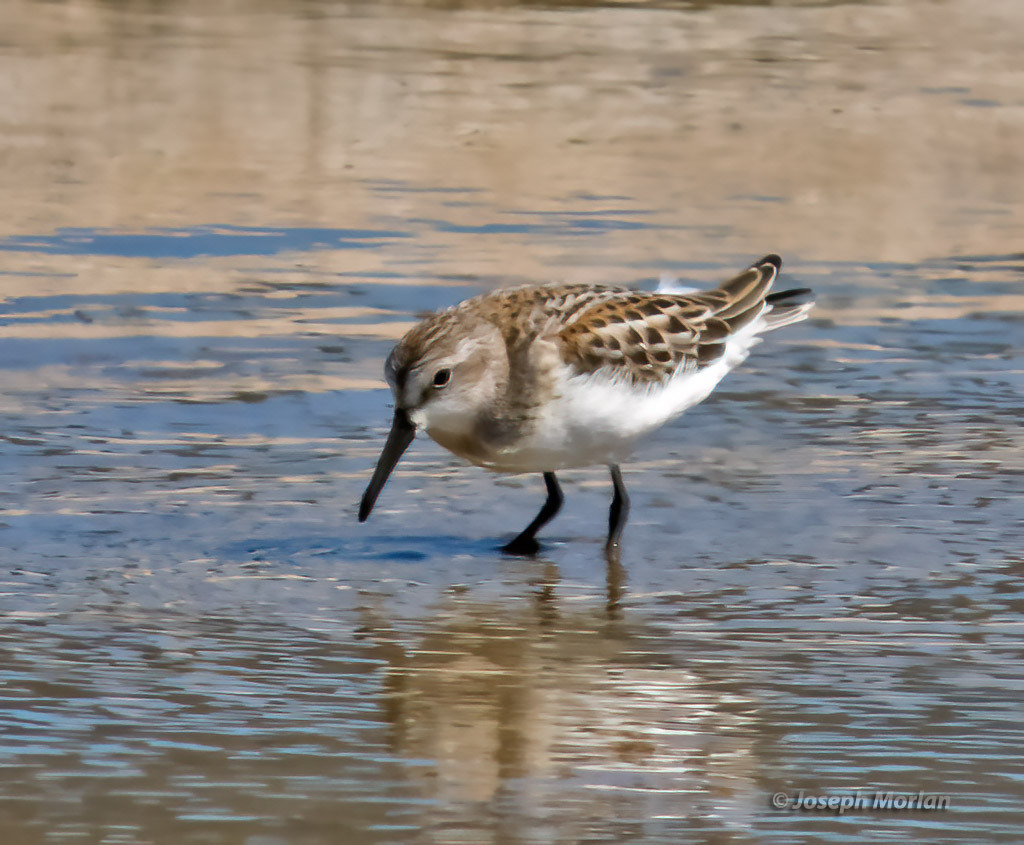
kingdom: Animalia
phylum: Chordata
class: Aves
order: Charadriiformes
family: Scolopacidae
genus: Calidris
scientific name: Calidris mauri
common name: Western sandpiper
